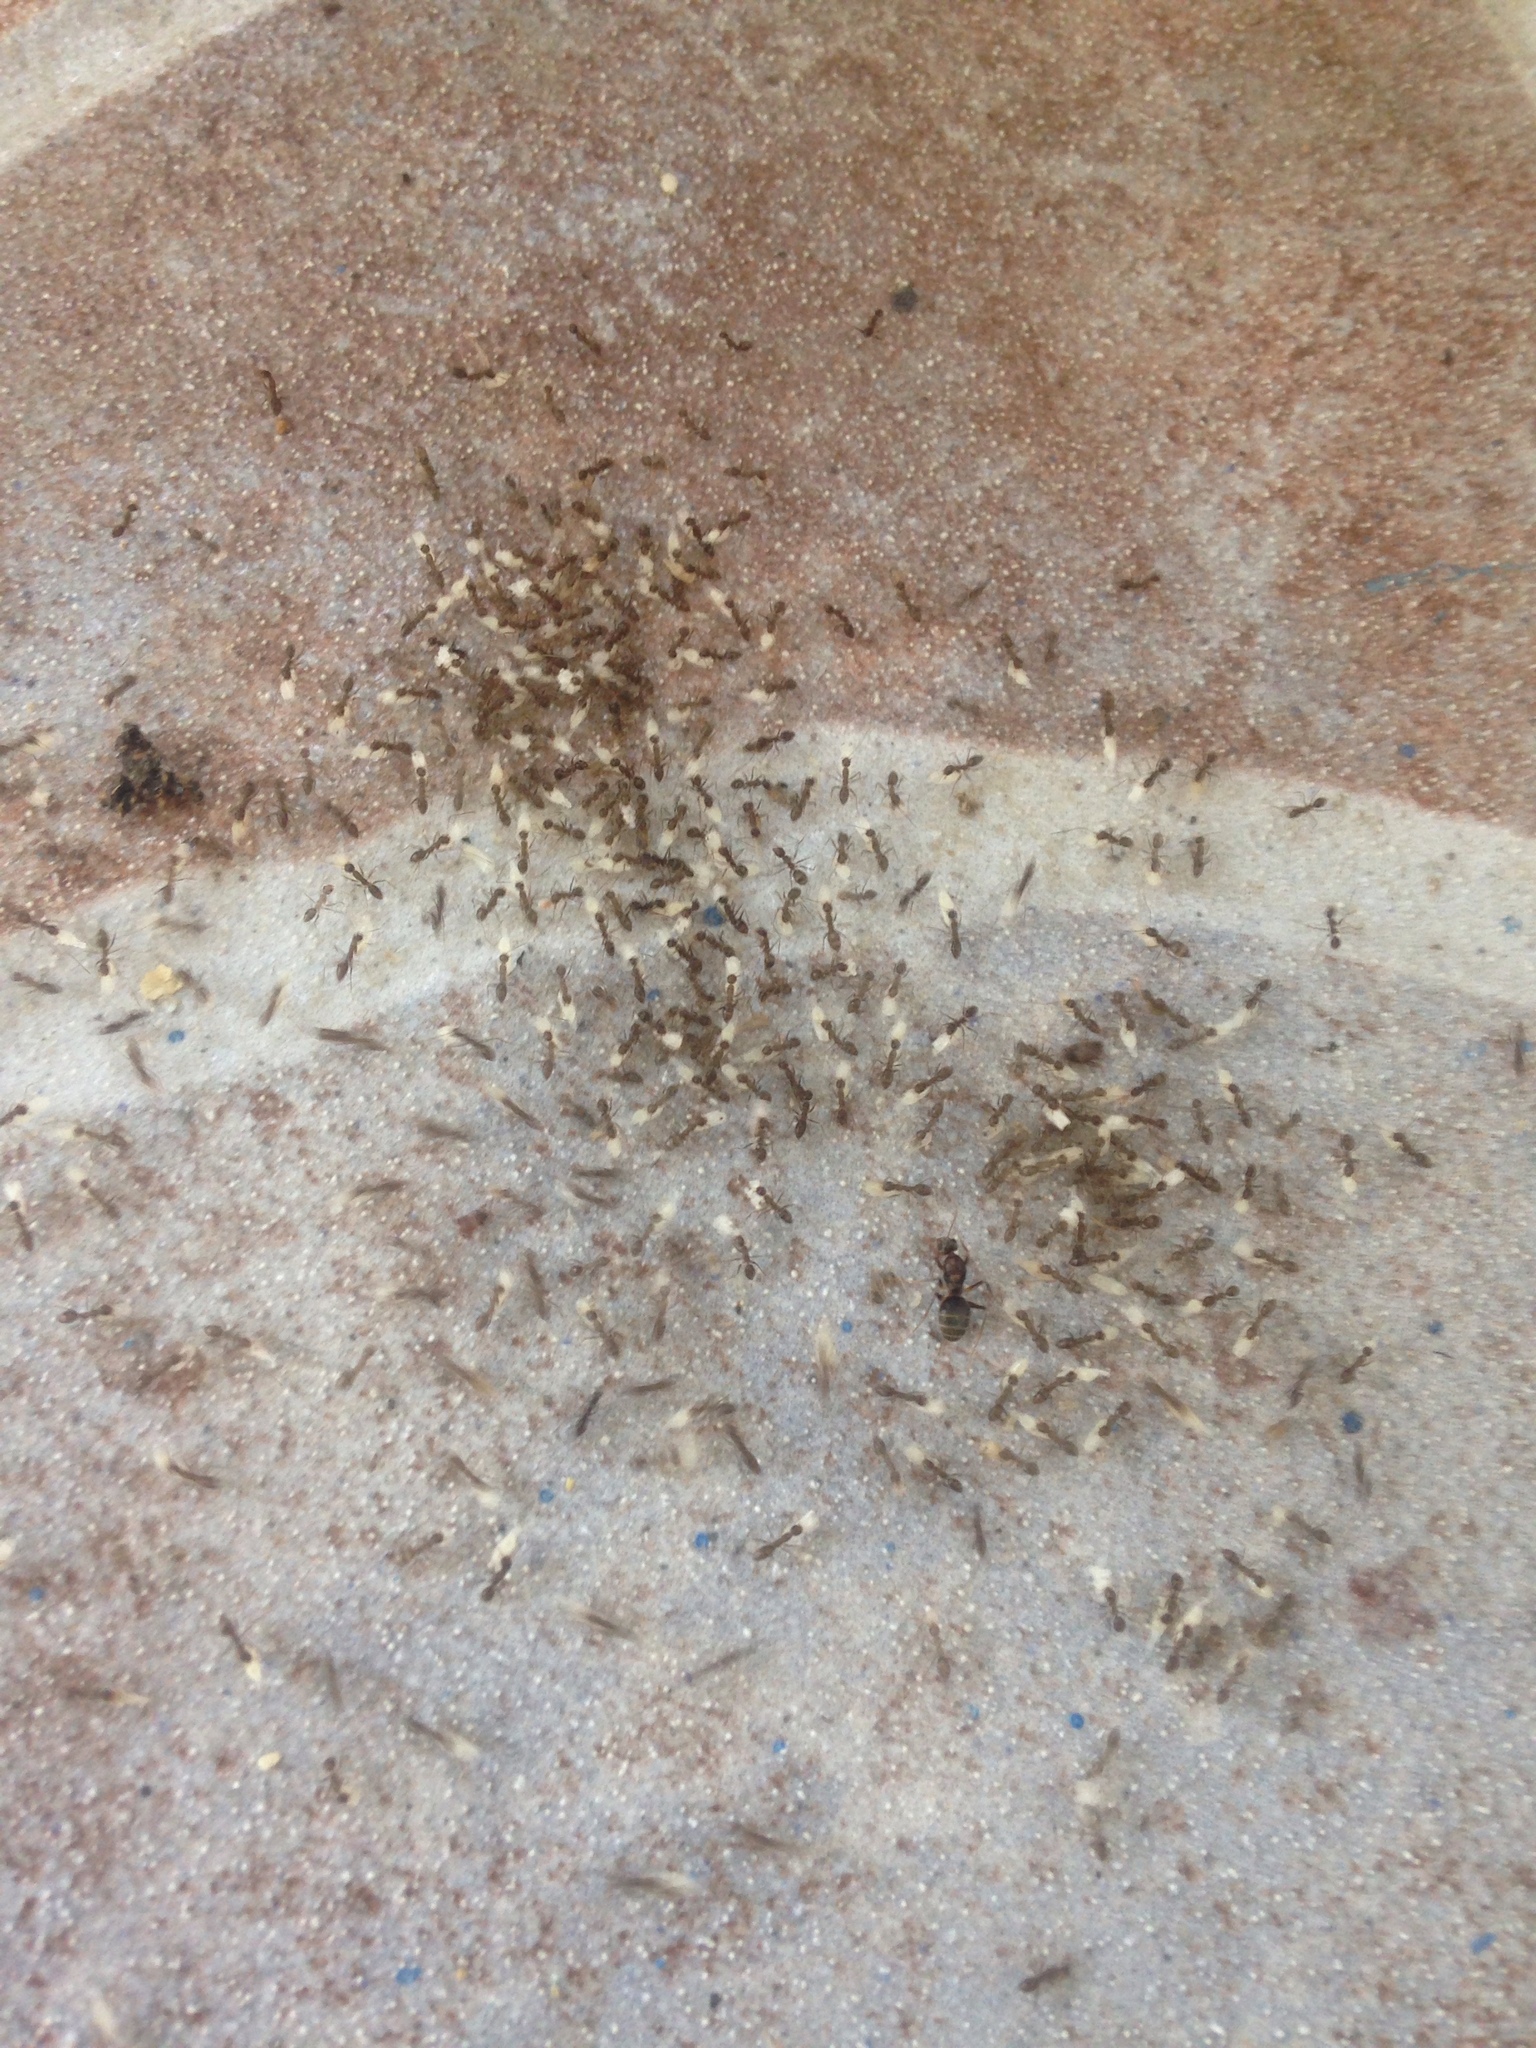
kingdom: Animalia
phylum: Arthropoda
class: Insecta
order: Hymenoptera
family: Formicidae
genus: Paratrechina
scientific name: Paratrechina longicornis
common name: Longhorned crazy ant
